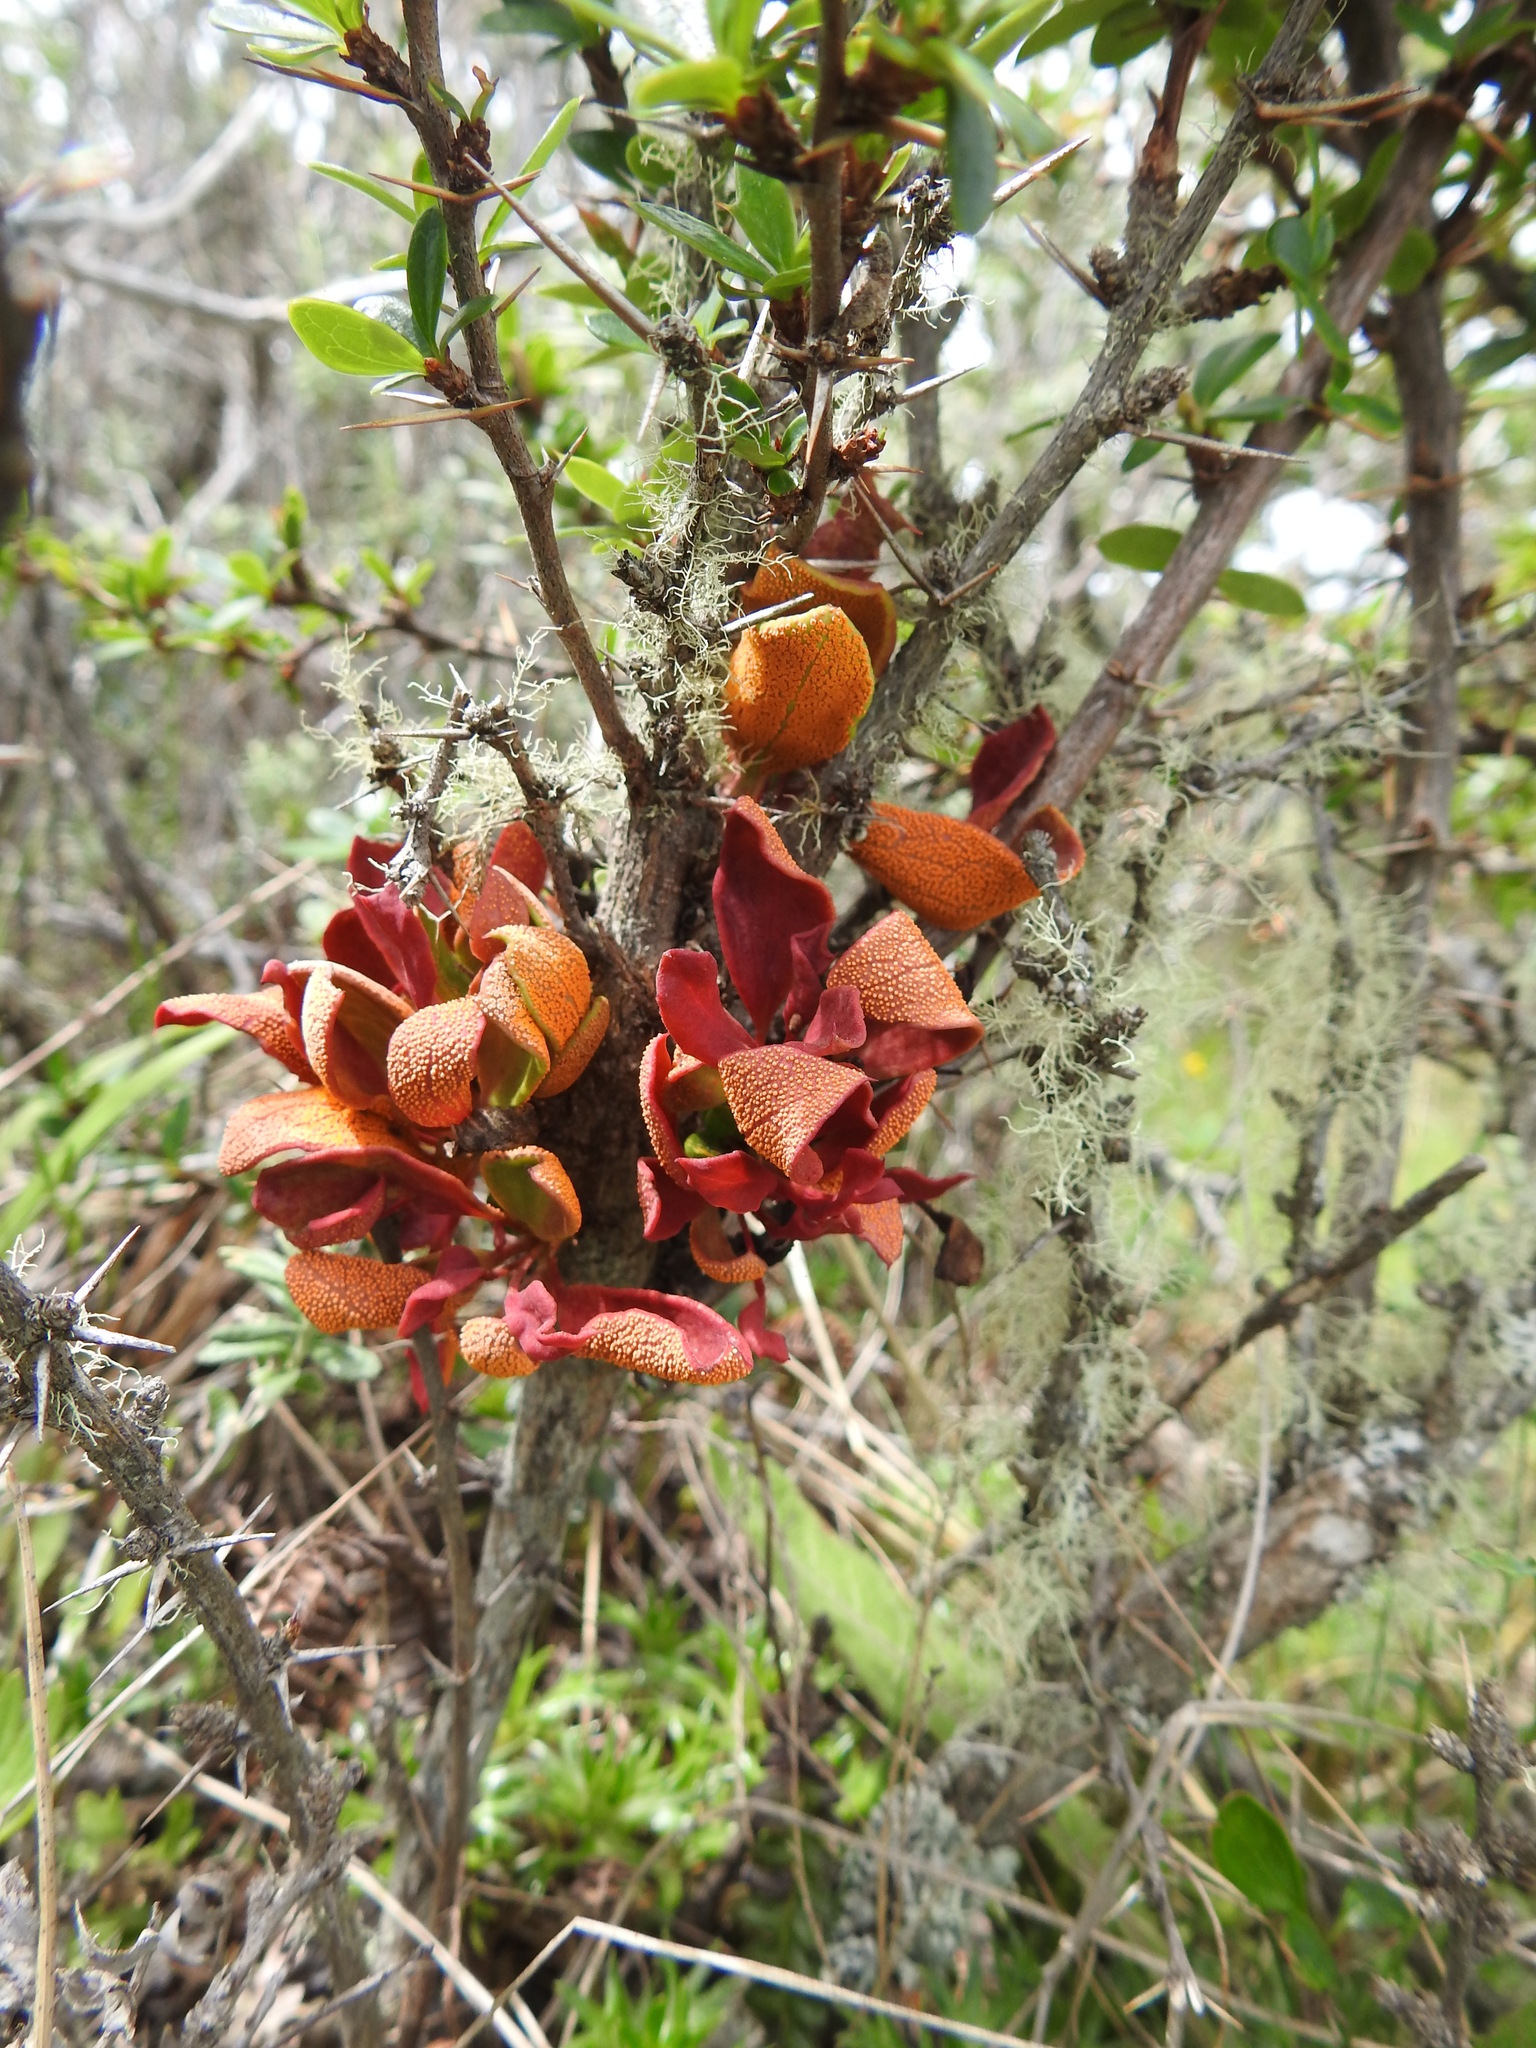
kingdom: Fungi
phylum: Basidiomycota
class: Pucciniomycetes
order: Pucciniales
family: Pucciniaceae
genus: Puccinia
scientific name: Puccinia magellanica
